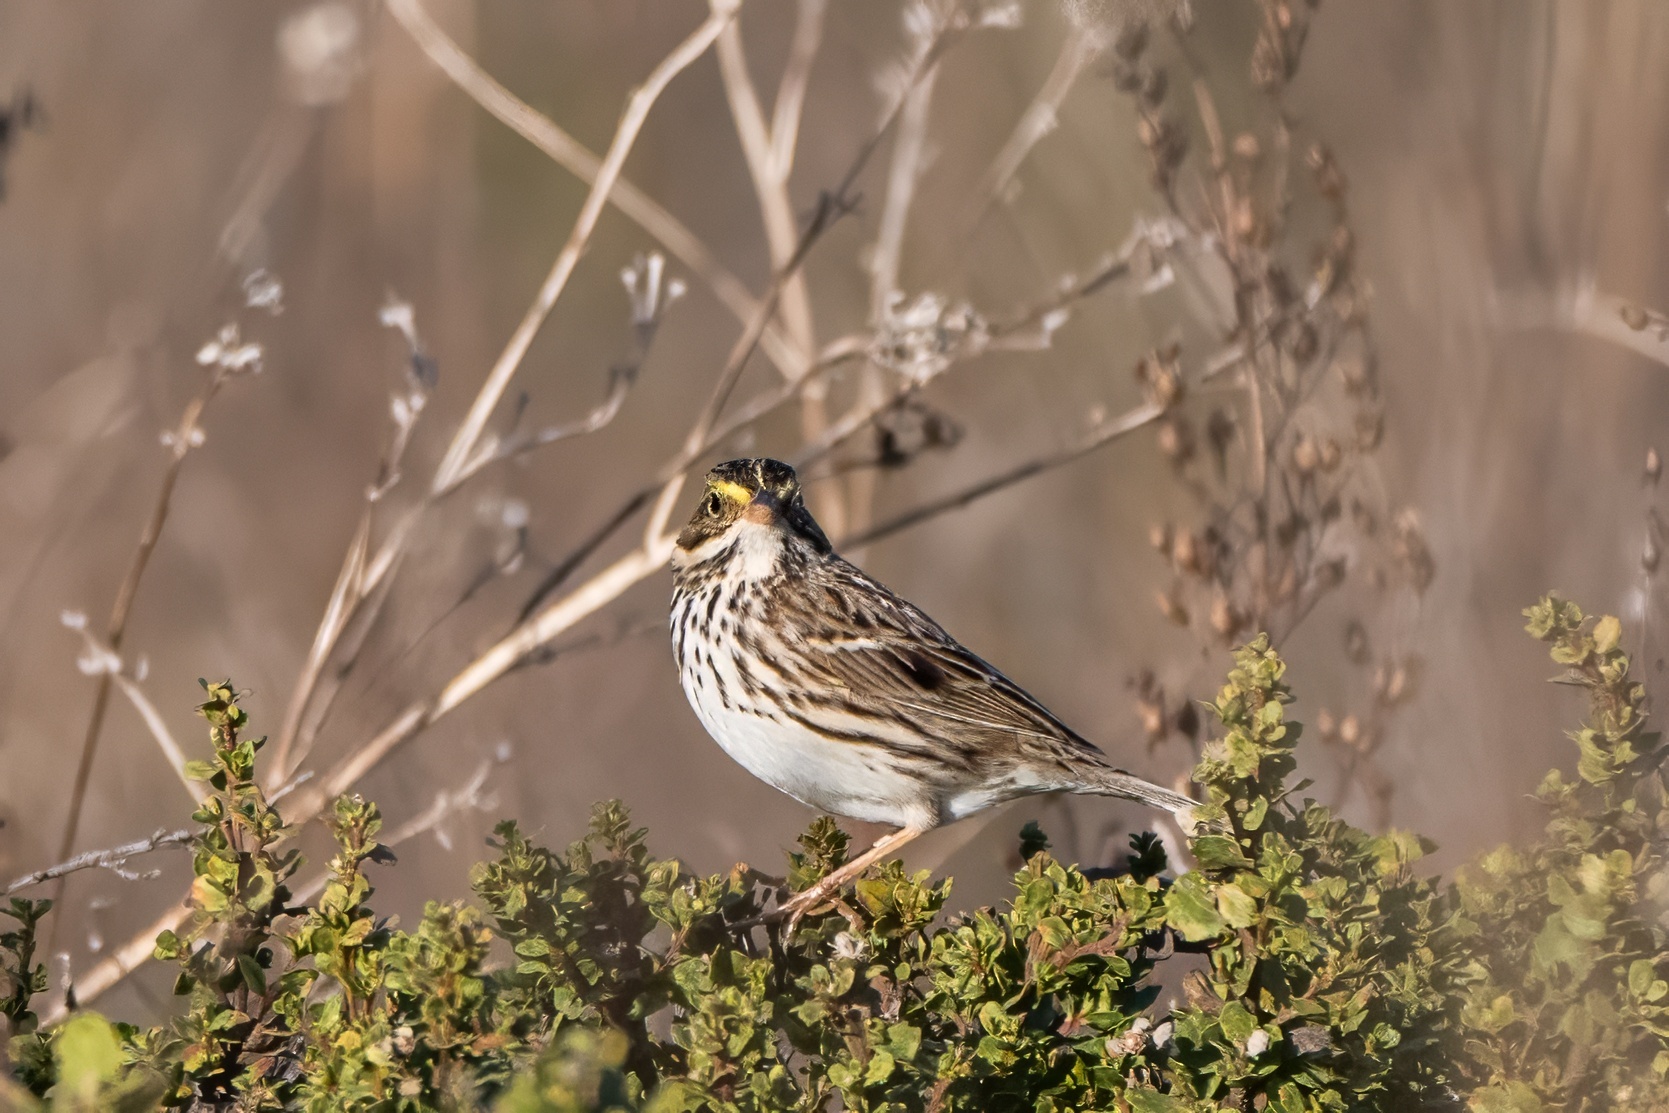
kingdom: Animalia
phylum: Chordata
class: Aves
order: Passeriformes
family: Passerellidae
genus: Passerculus
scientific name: Passerculus sandwichensis
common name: Savannah sparrow
